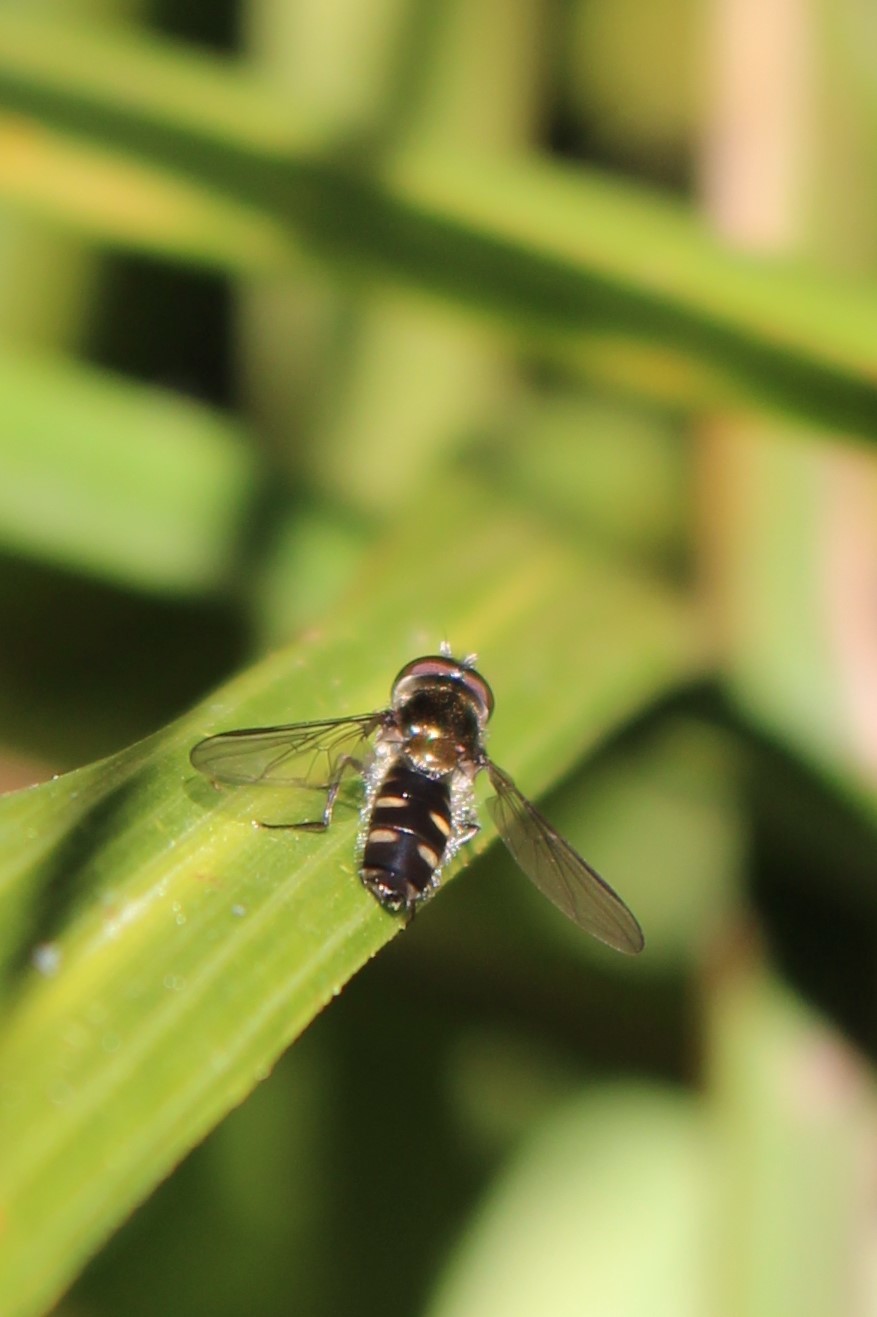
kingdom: Animalia
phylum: Arthropoda
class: Insecta
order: Diptera
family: Syrphidae
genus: Melangyna
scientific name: Melangyna novaezelandiae
